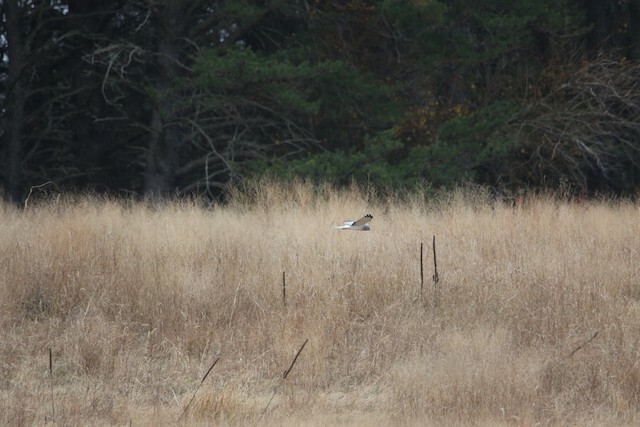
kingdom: Animalia
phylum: Chordata
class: Aves
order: Accipitriformes
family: Accipitridae
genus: Circus
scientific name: Circus cyaneus
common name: Hen harrier
